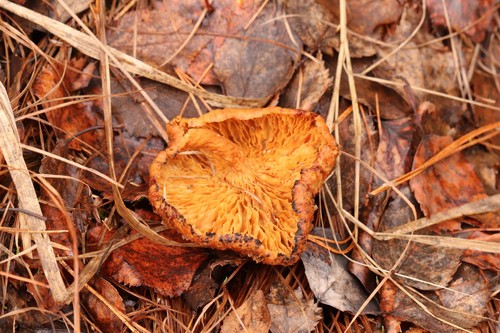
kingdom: Fungi
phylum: Basidiomycota
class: Agaricomycetes
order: Russulales
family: Russulaceae
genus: Lactarius
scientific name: Lactarius helvus
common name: Fenugreek milkcap
